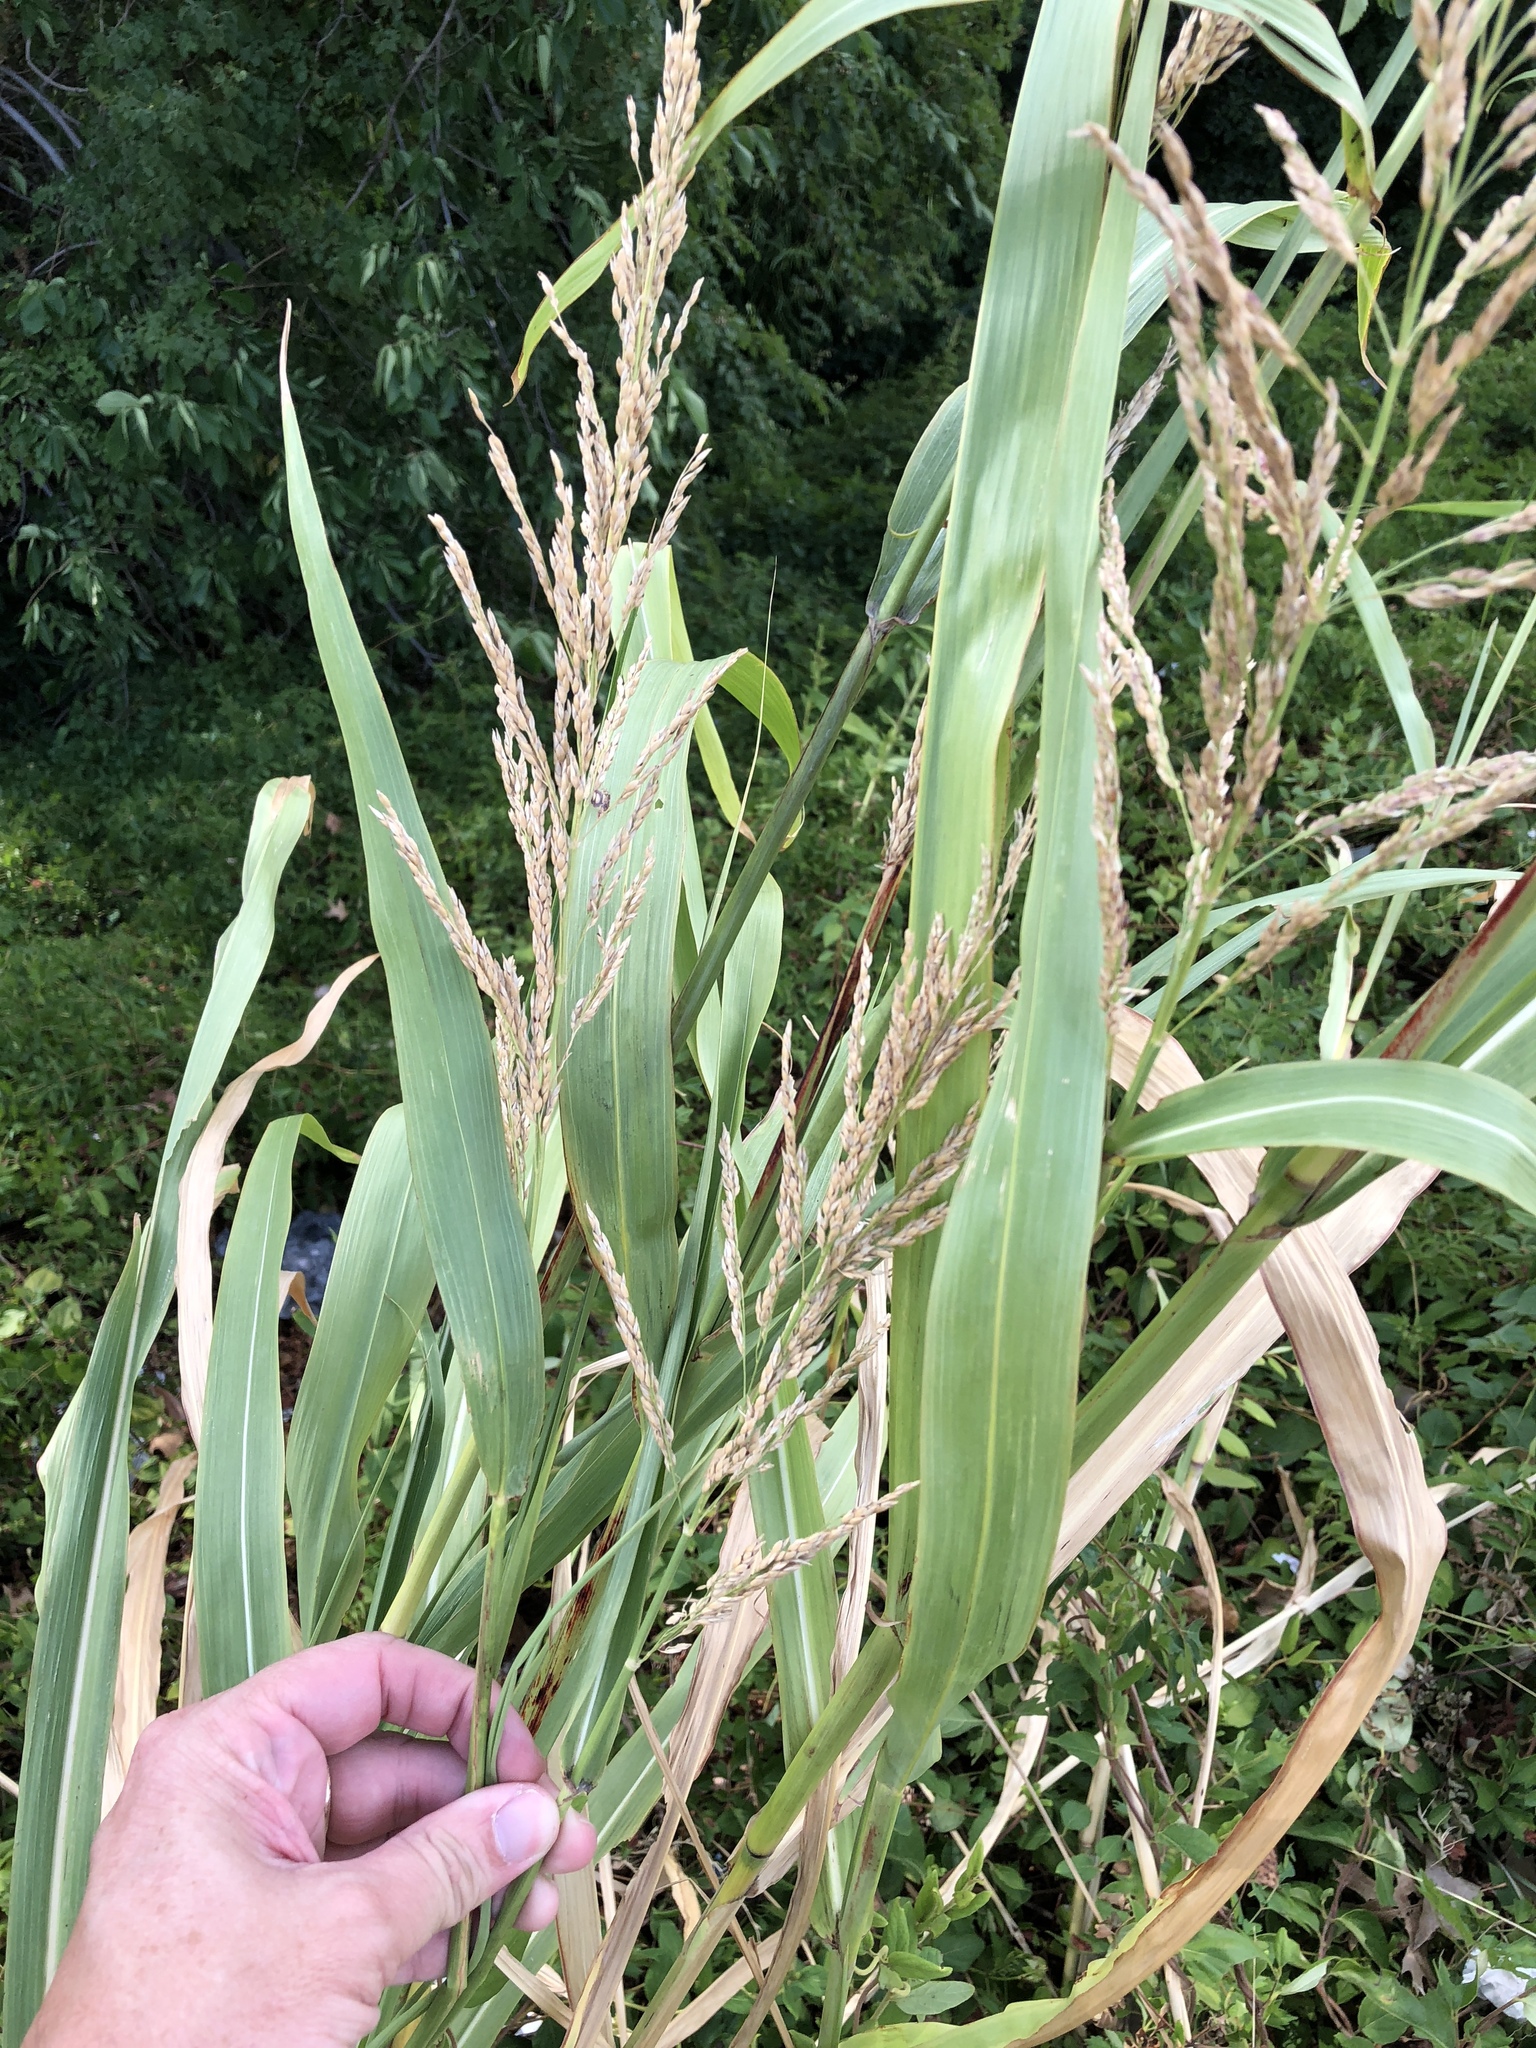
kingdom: Plantae
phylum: Tracheophyta
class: Liliopsida
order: Poales
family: Poaceae
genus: Sorghum
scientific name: Sorghum halepense
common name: Johnson-grass
